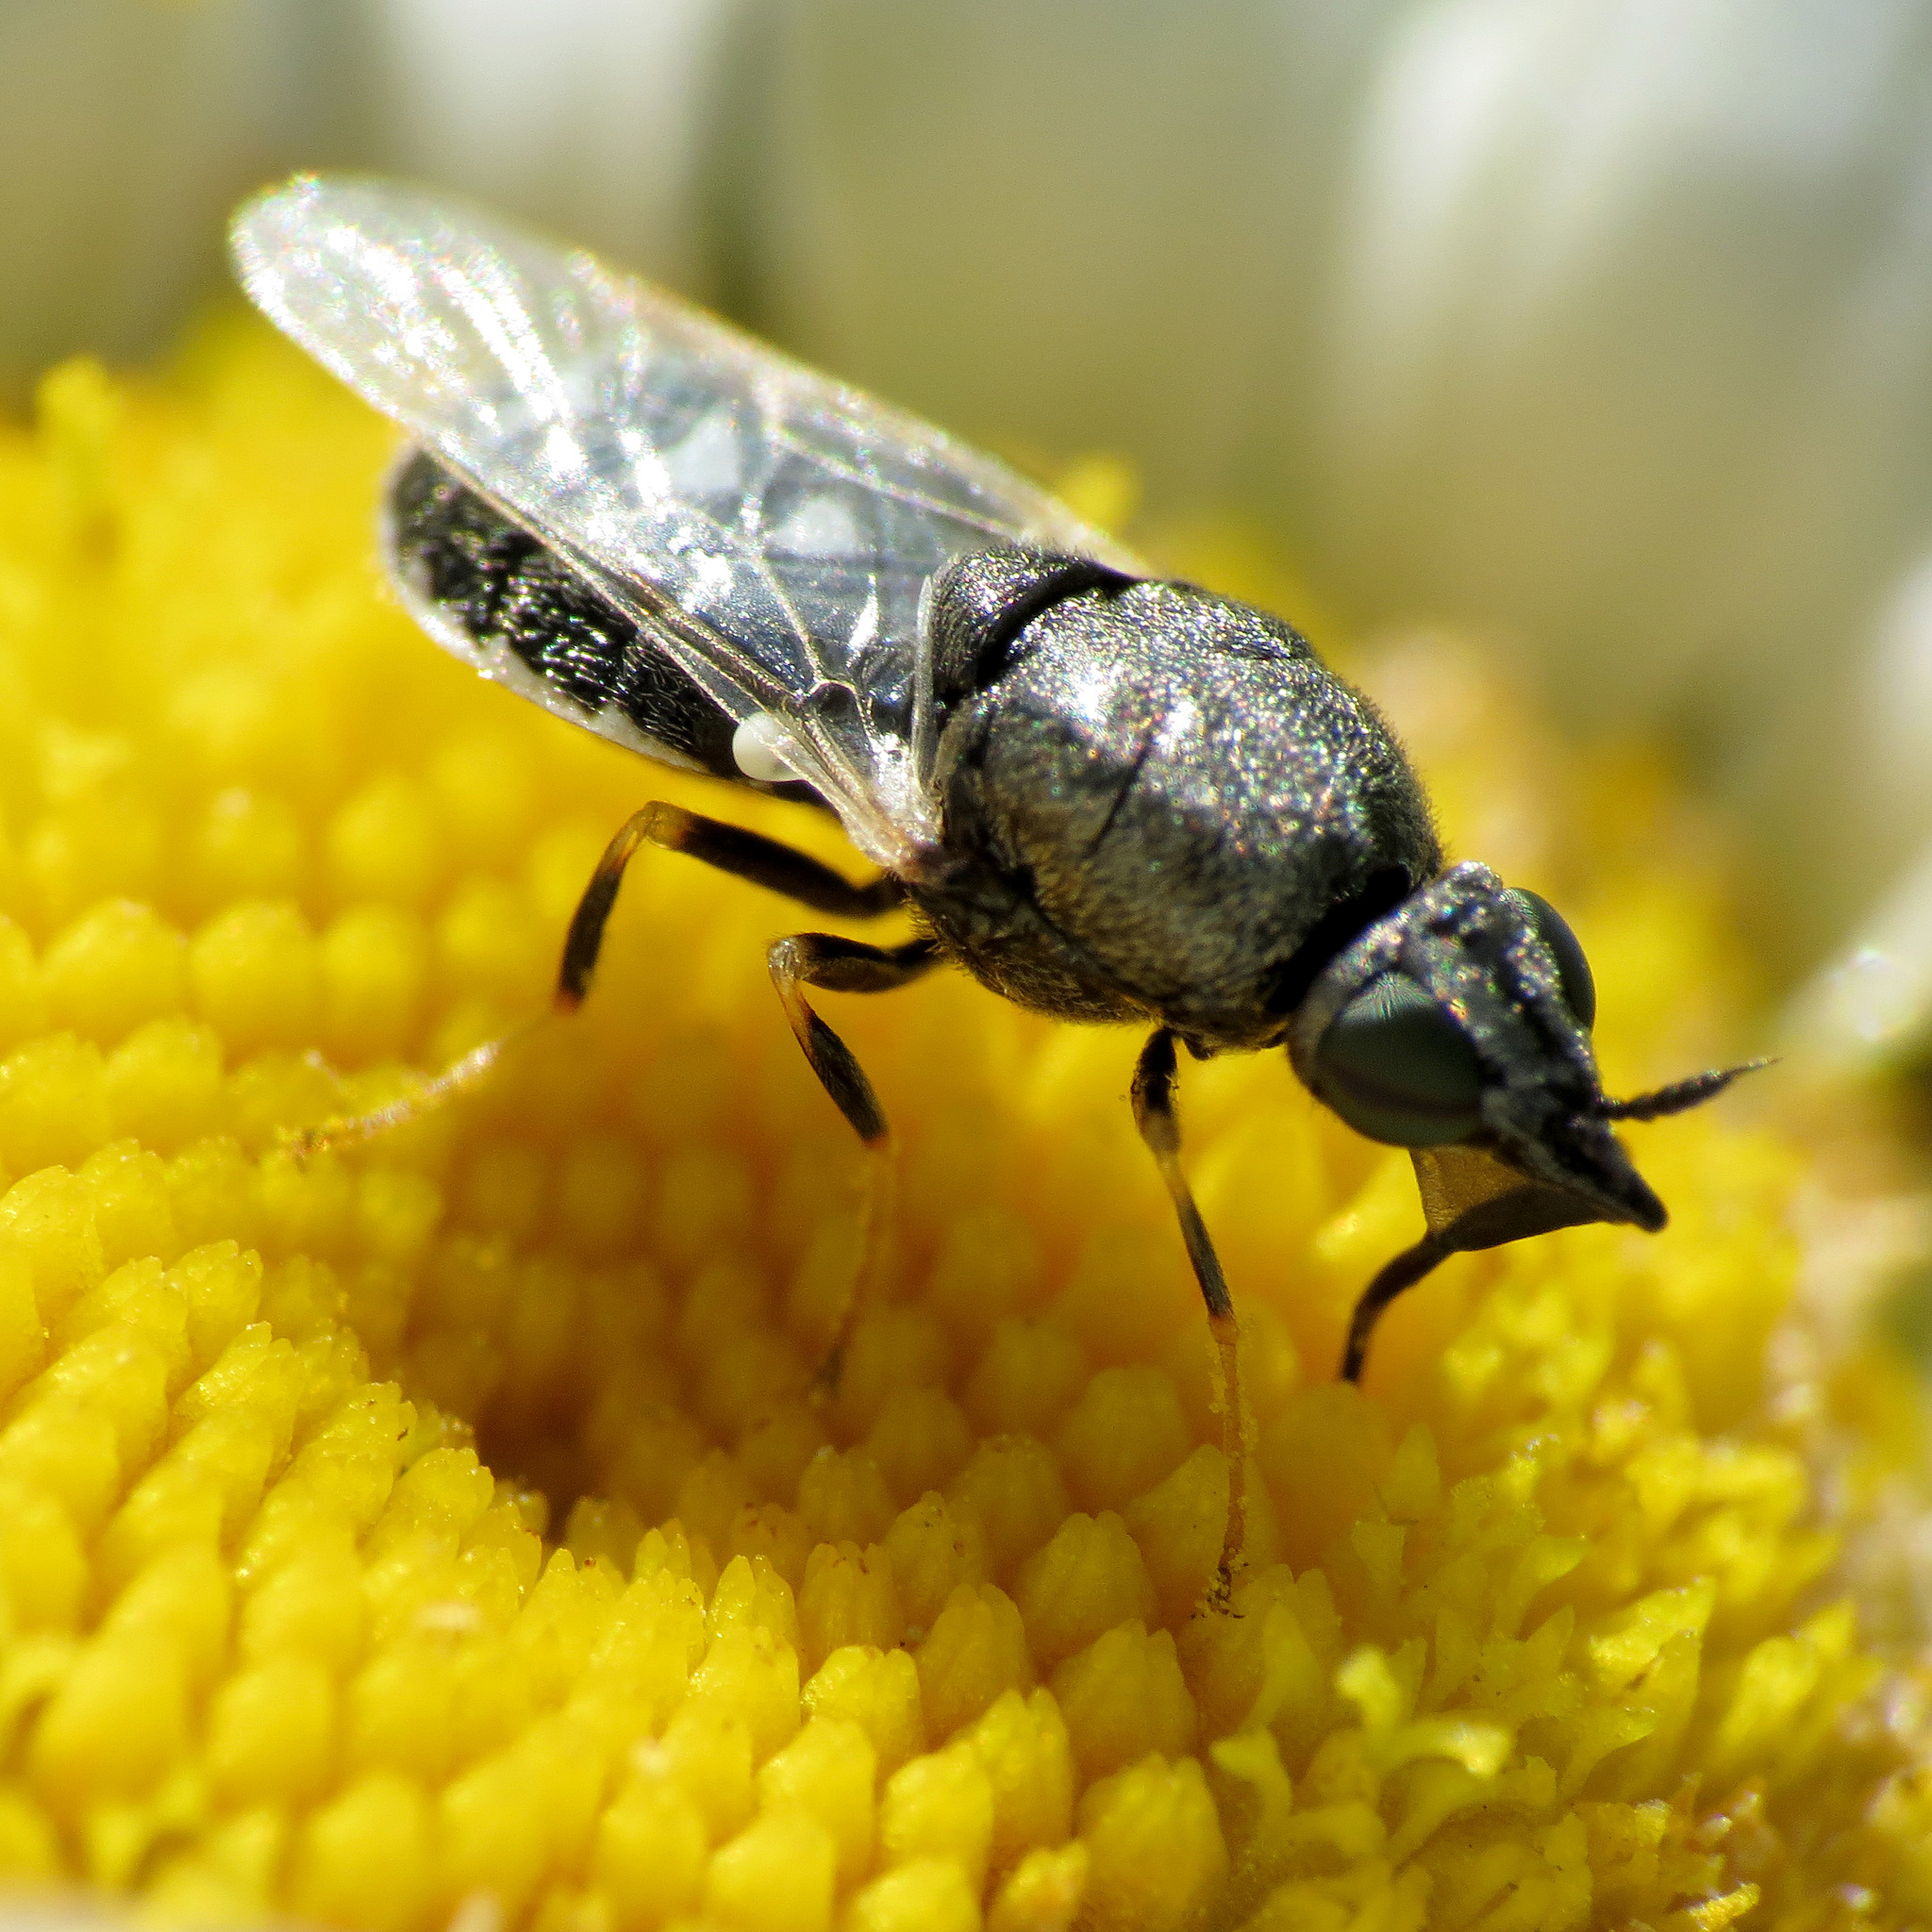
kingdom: Animalia
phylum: Arthropoda
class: Insecta
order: Diptera
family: Stratiomyidae
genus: Nemotelus
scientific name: Nemotelus kansensis
